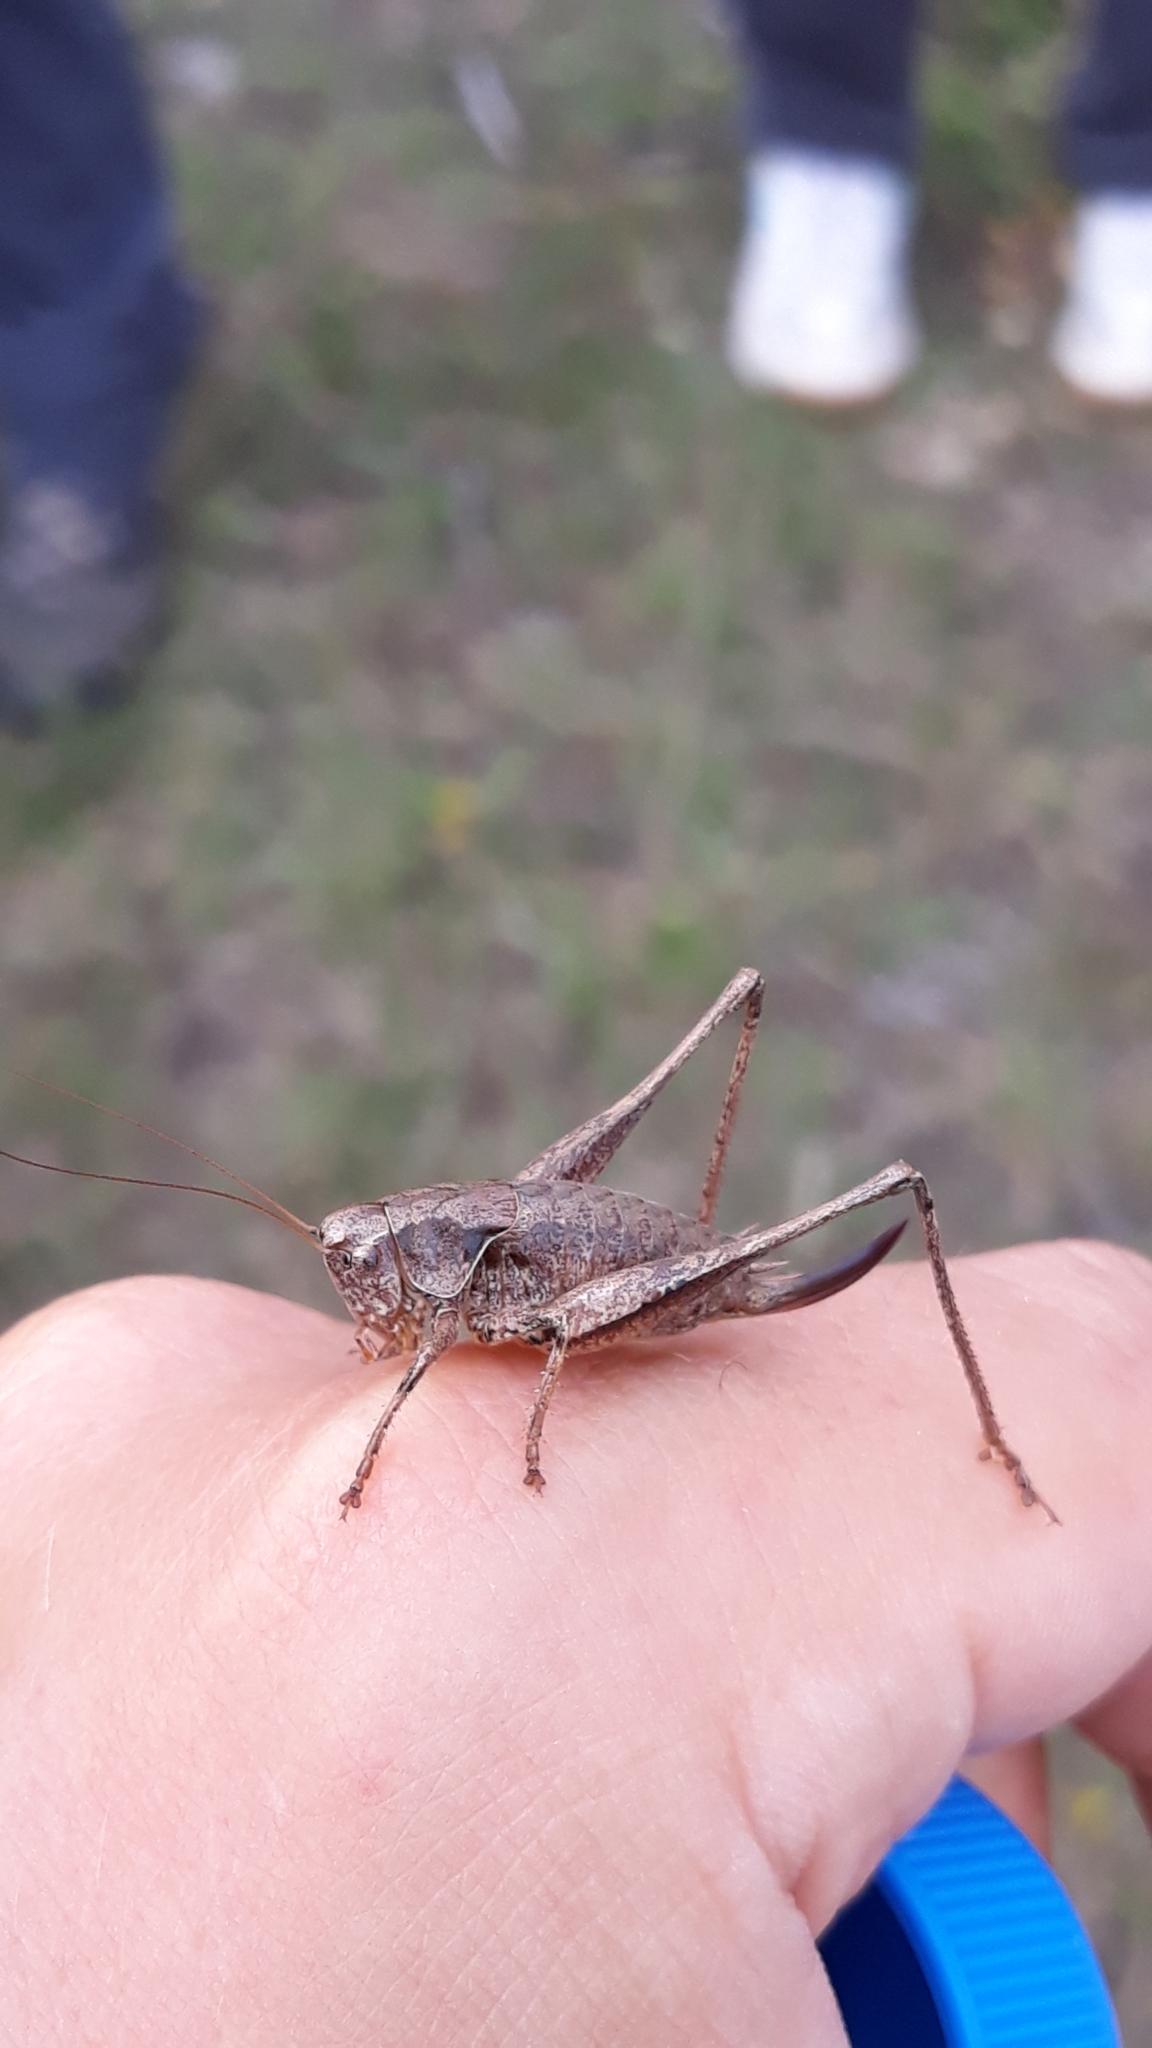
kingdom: Animalia
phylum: Arthropoda
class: Insecta
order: Orthoptera
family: Tettigoniidae
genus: Pholidoptera
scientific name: Pholidoptera griseoaptera
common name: Dark bush-cricket
